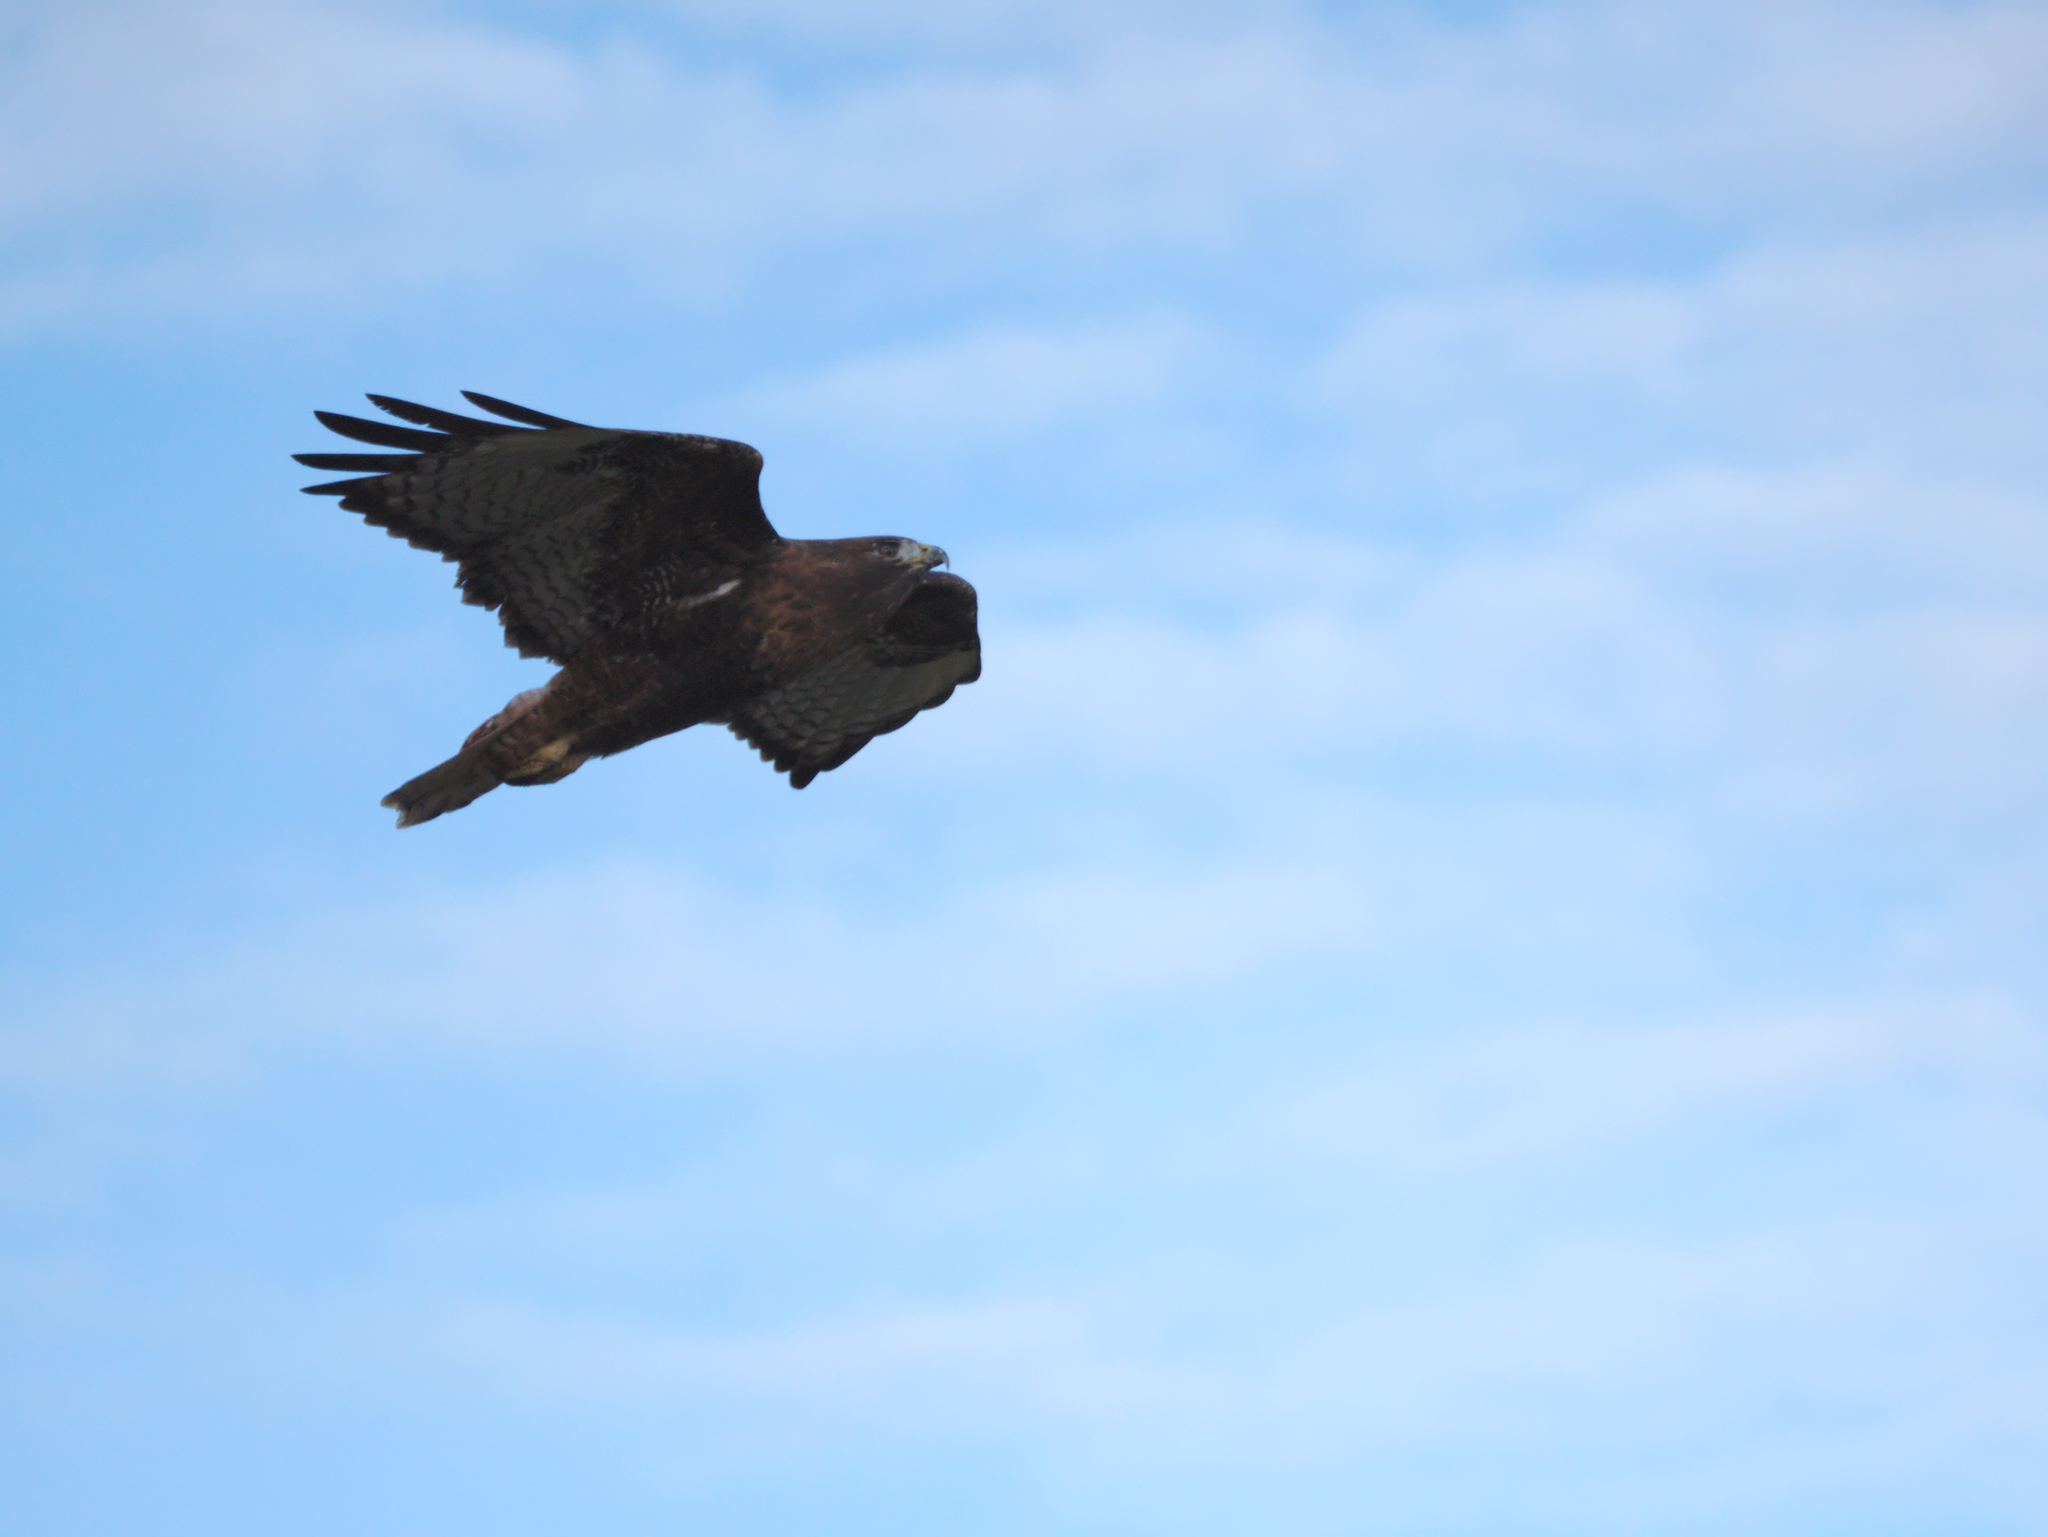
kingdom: Animalia
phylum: Chordata
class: Aves
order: Accipitriformes
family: Accipitridae
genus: Buteo
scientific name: Buteo jamaicensis
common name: Red-tailed hawk
